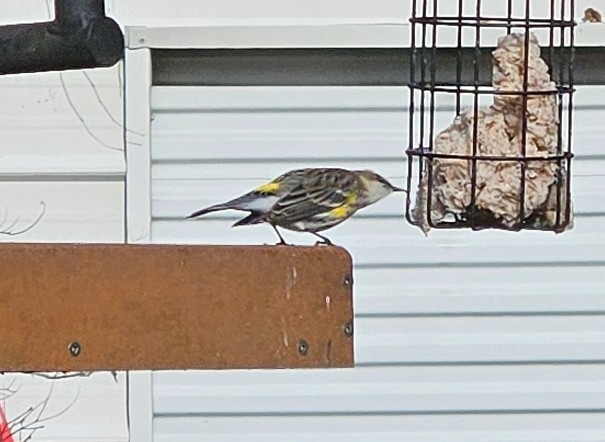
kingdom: Animalia
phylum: Chordata
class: Aves
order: Passeriformes
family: Parulidae
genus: Setophaga
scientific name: Setophaga coronata
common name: Myrtle warbler
